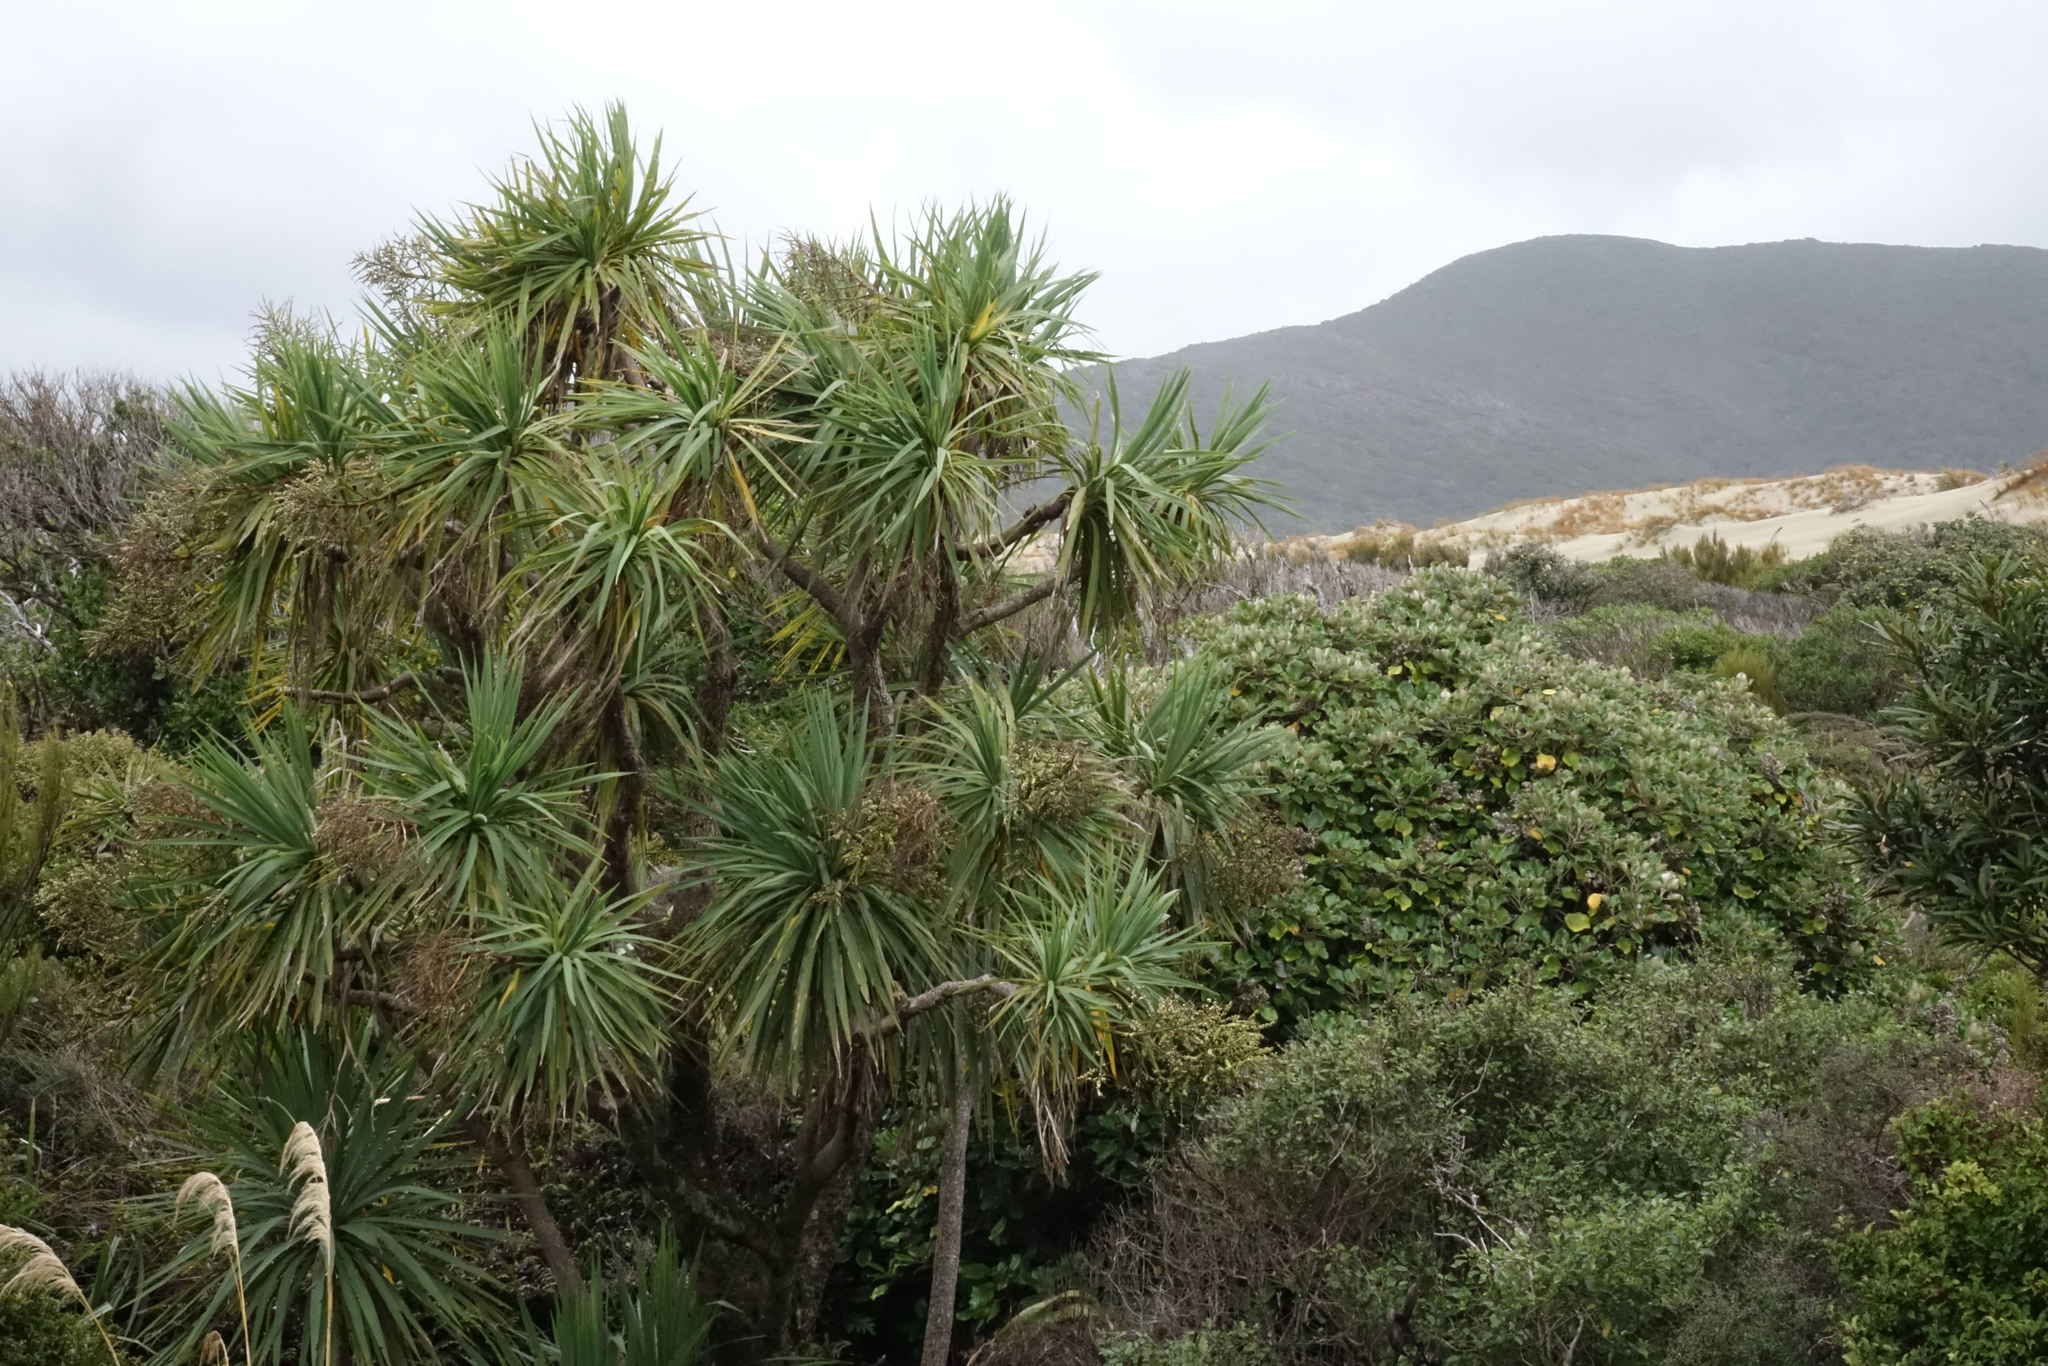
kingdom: Plantae
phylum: Tracheophyta
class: Liliopsida
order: Asparagales
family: Asparagaceae
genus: Cordyline
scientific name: Cordyline australis
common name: Cabbage-palm
